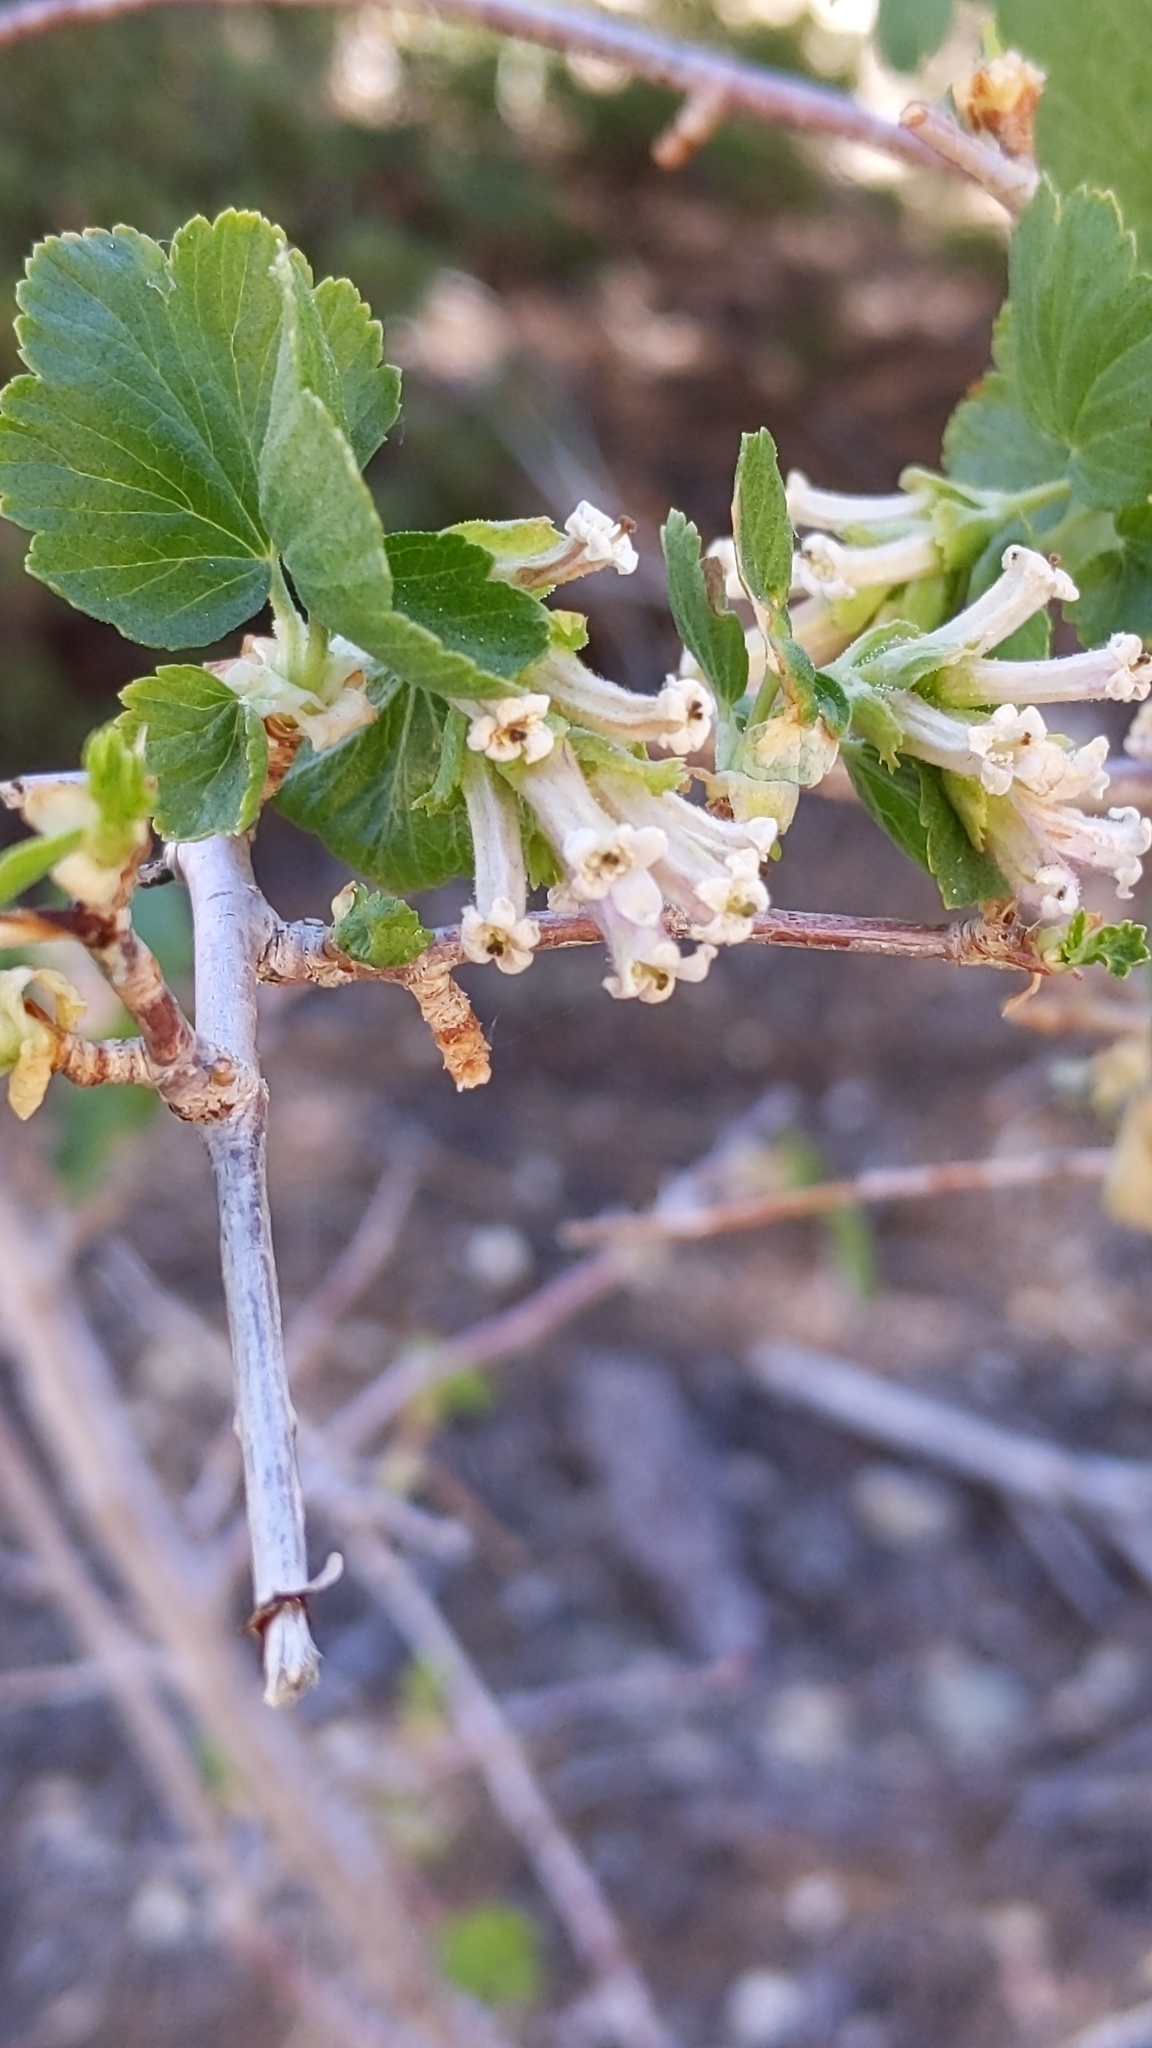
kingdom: Plantae
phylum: Tracheophyta
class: Magnoliopsida
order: Saxifragales
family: Grossulariaceae
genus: Ribes
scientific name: Ribes cereum
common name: Wax currant
